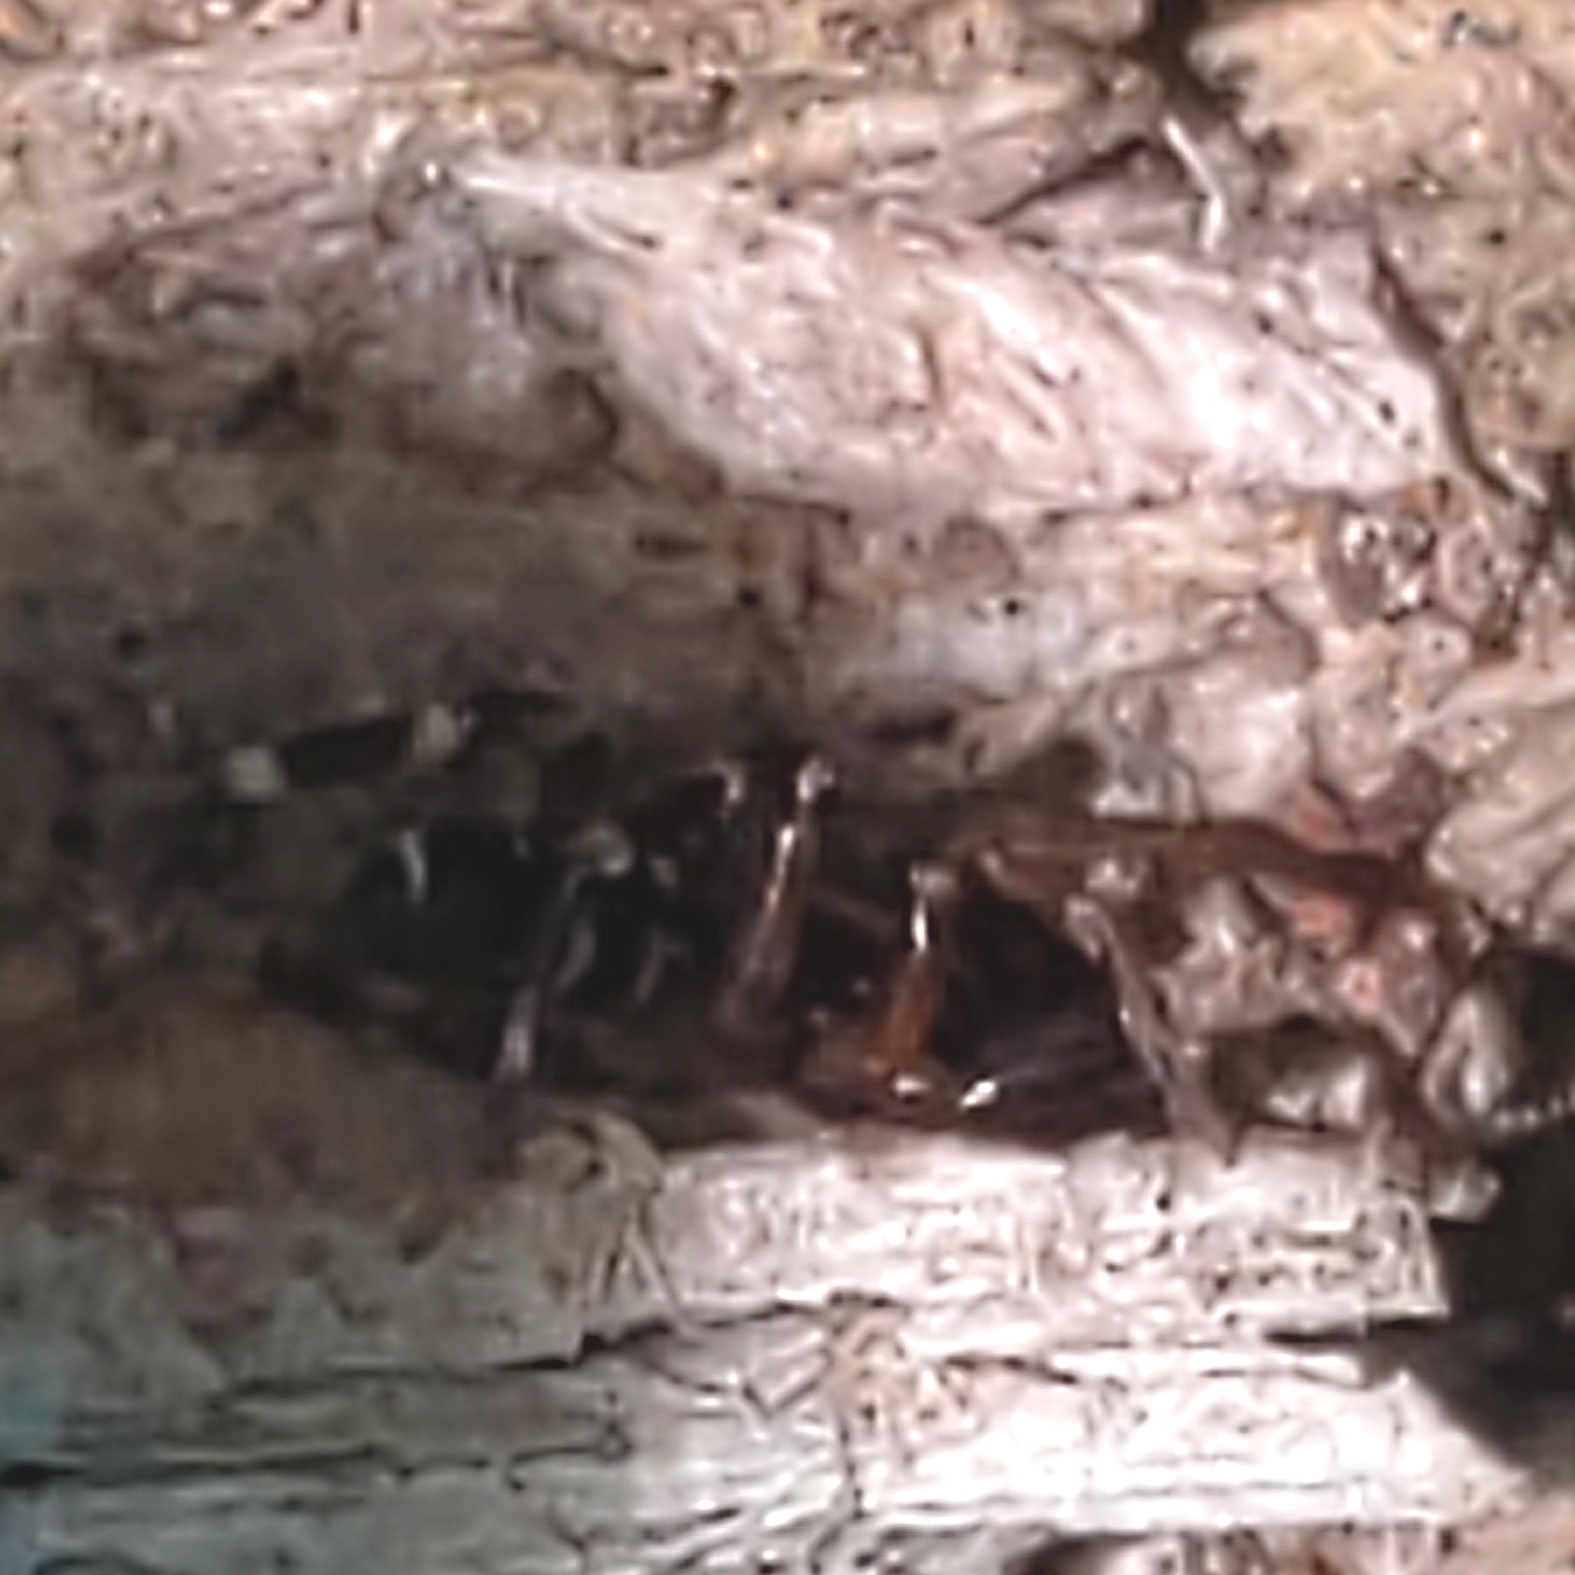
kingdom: Animalia
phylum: Arthropoda
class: Arachnida
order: Araneae
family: Corinnidae
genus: Castianeira
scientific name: Castianeira
